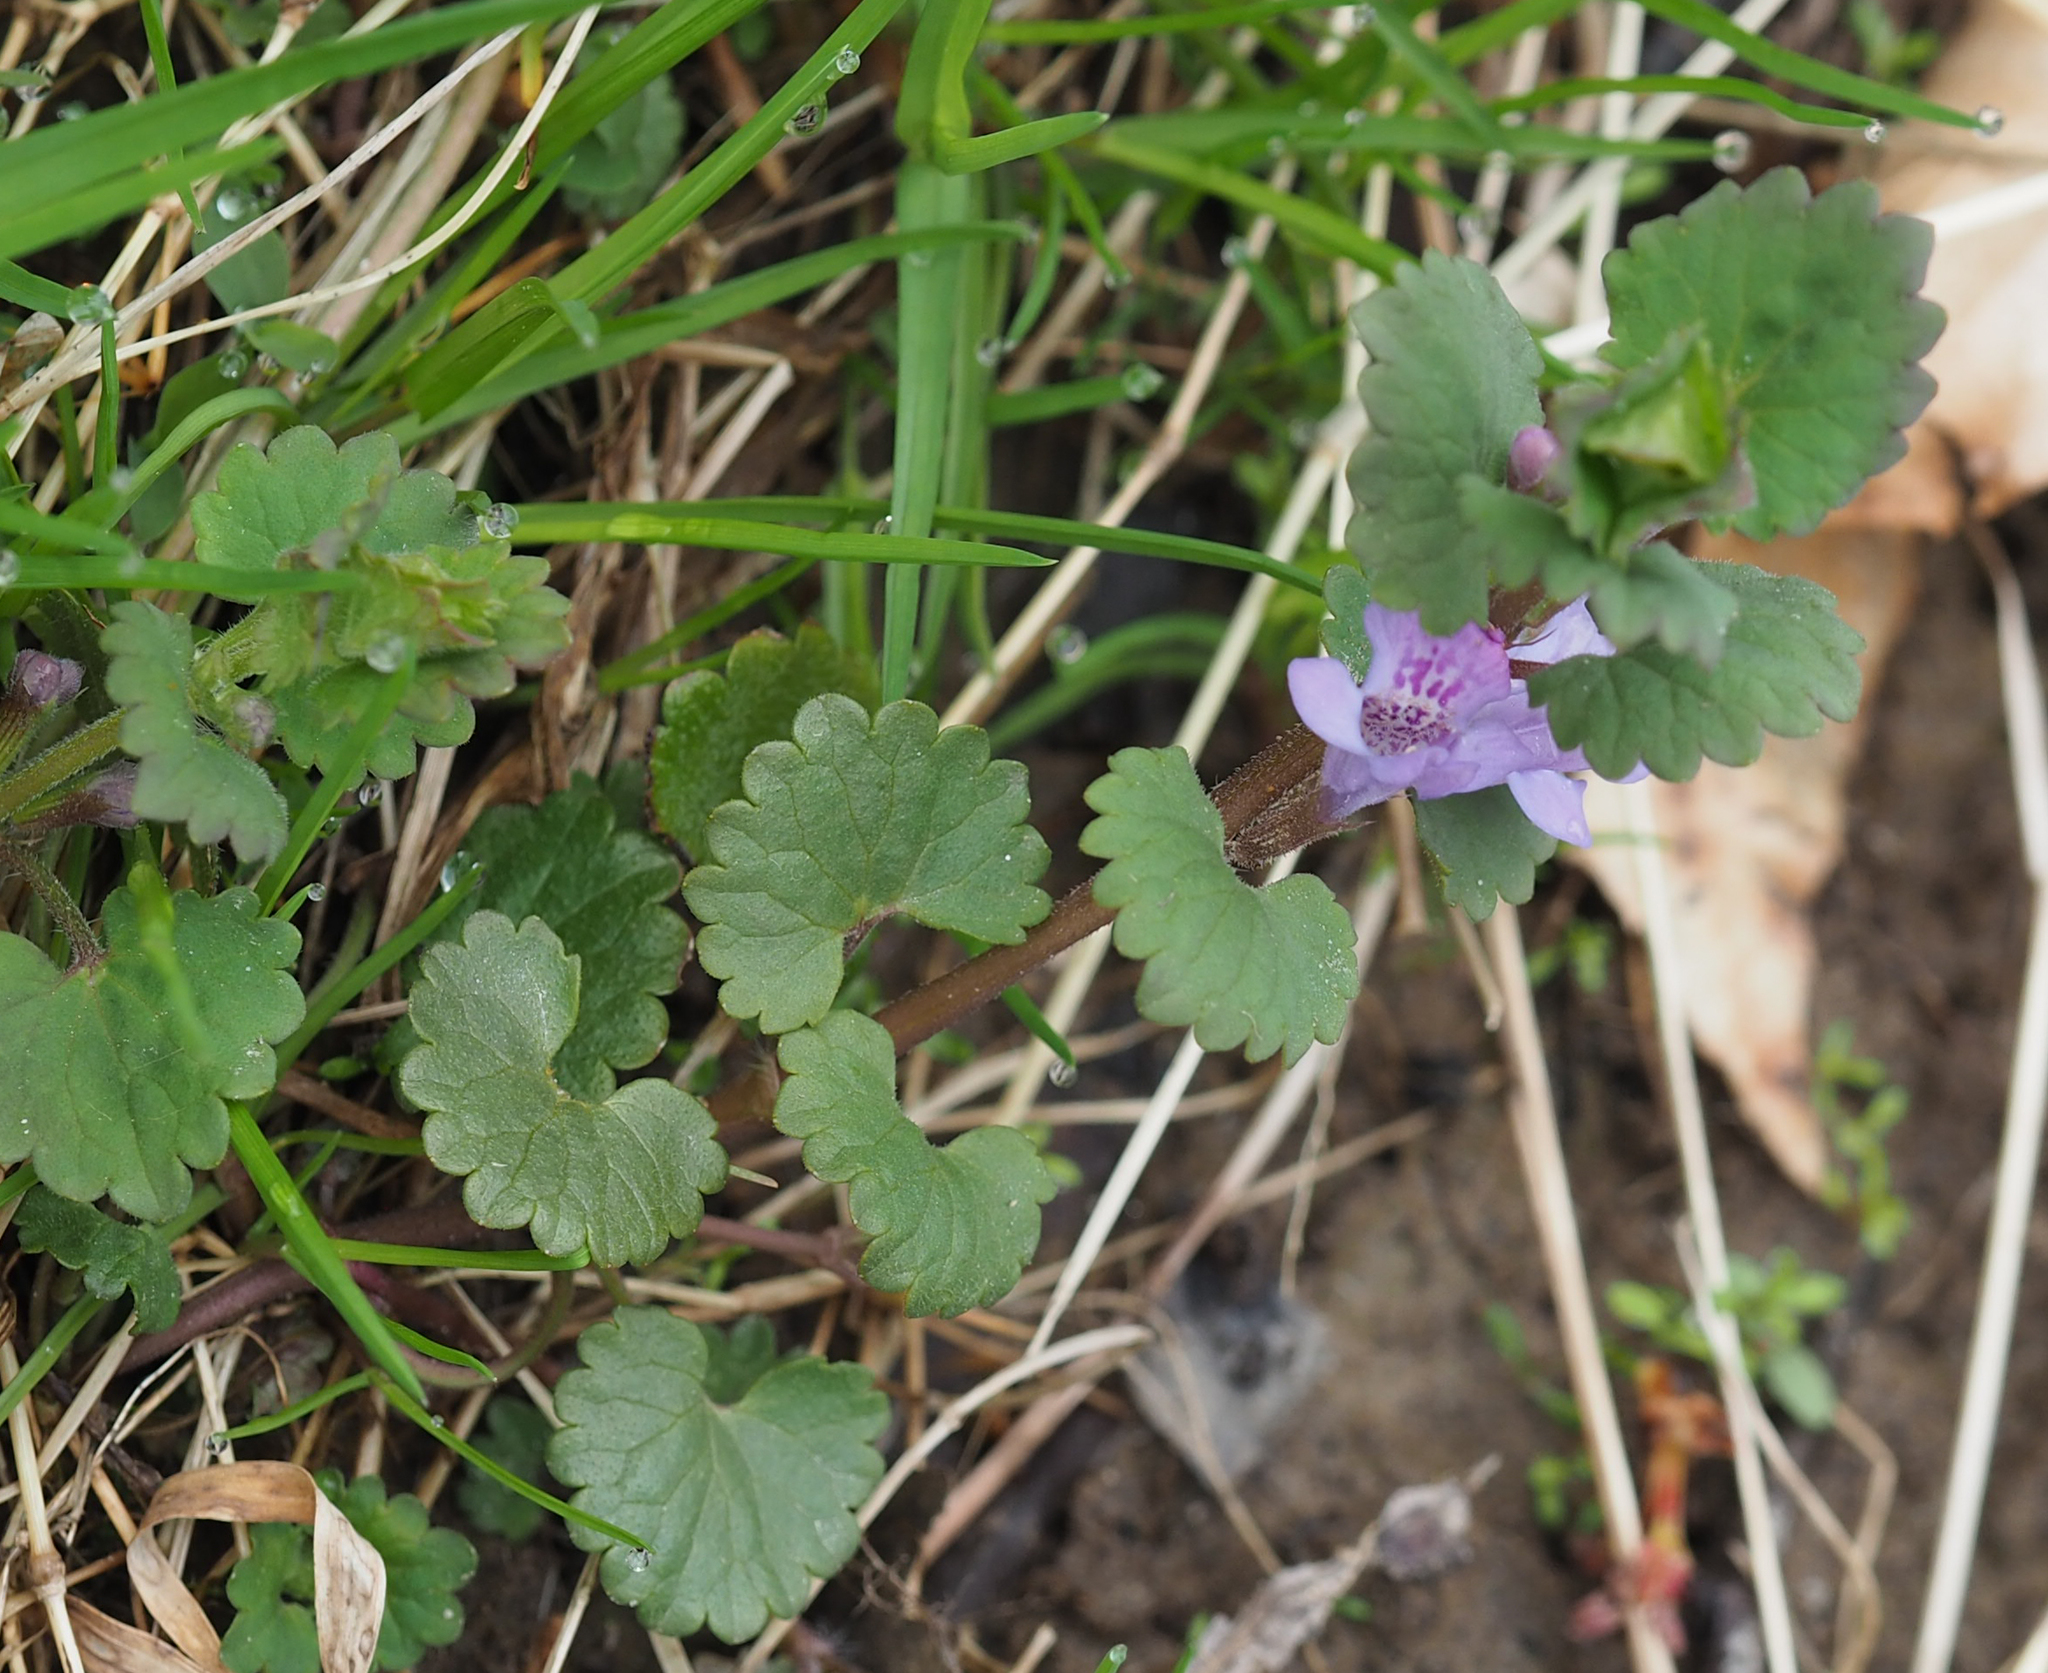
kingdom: Plantae
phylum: Tracheophyta
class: Magnoliopsida
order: Lamiales
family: Lamiaceae
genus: Glechoma
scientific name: Glechoma hederacea
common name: Ground ivy
